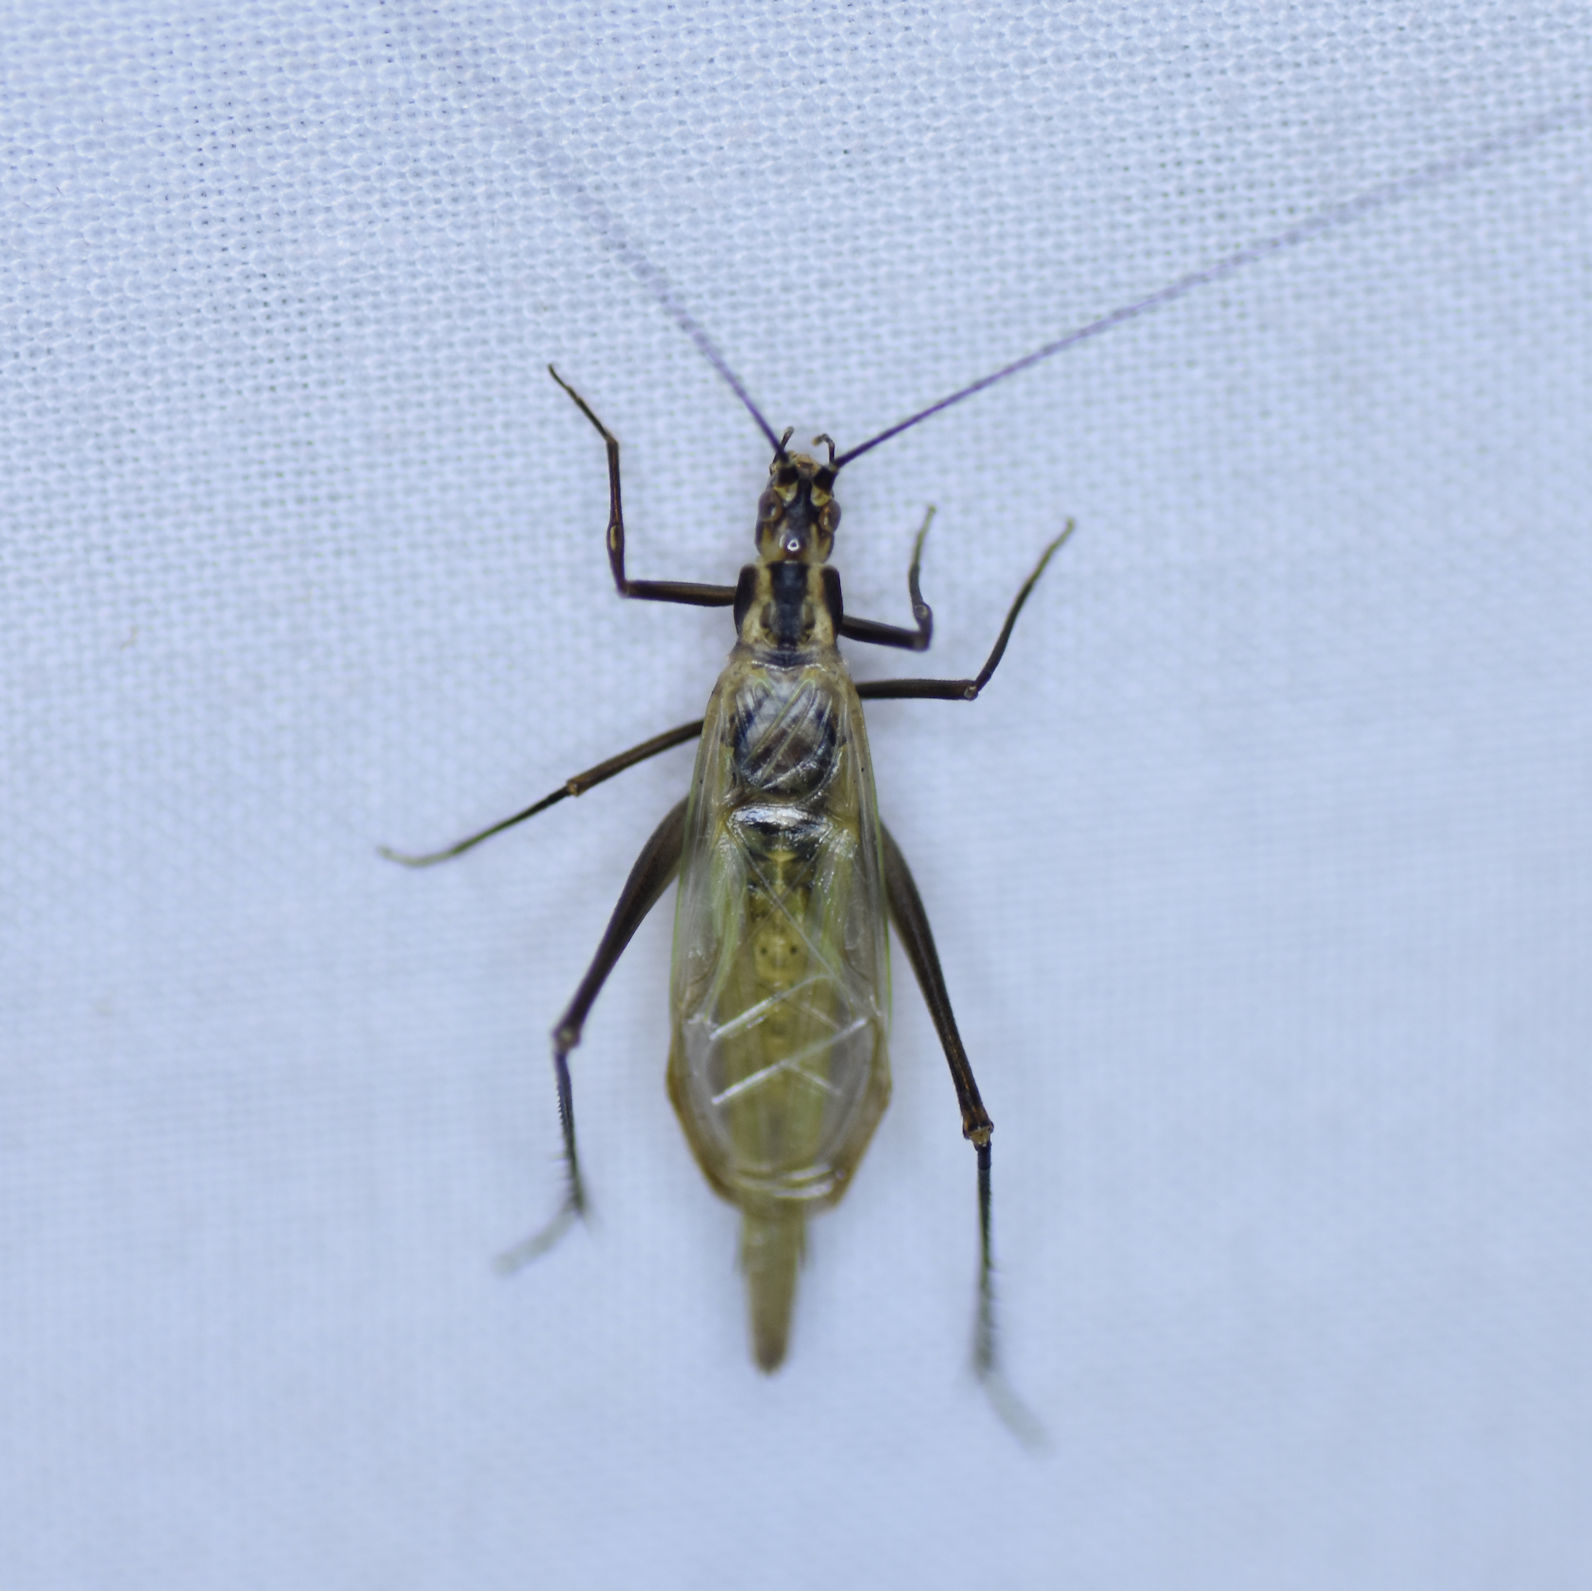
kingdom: Animalia
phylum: Arthropoda
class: Insecta
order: Orthoptera
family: Gryllidae
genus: Oecanthus
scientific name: Oecanthus nigricornis
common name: Black-horned tree cricket
